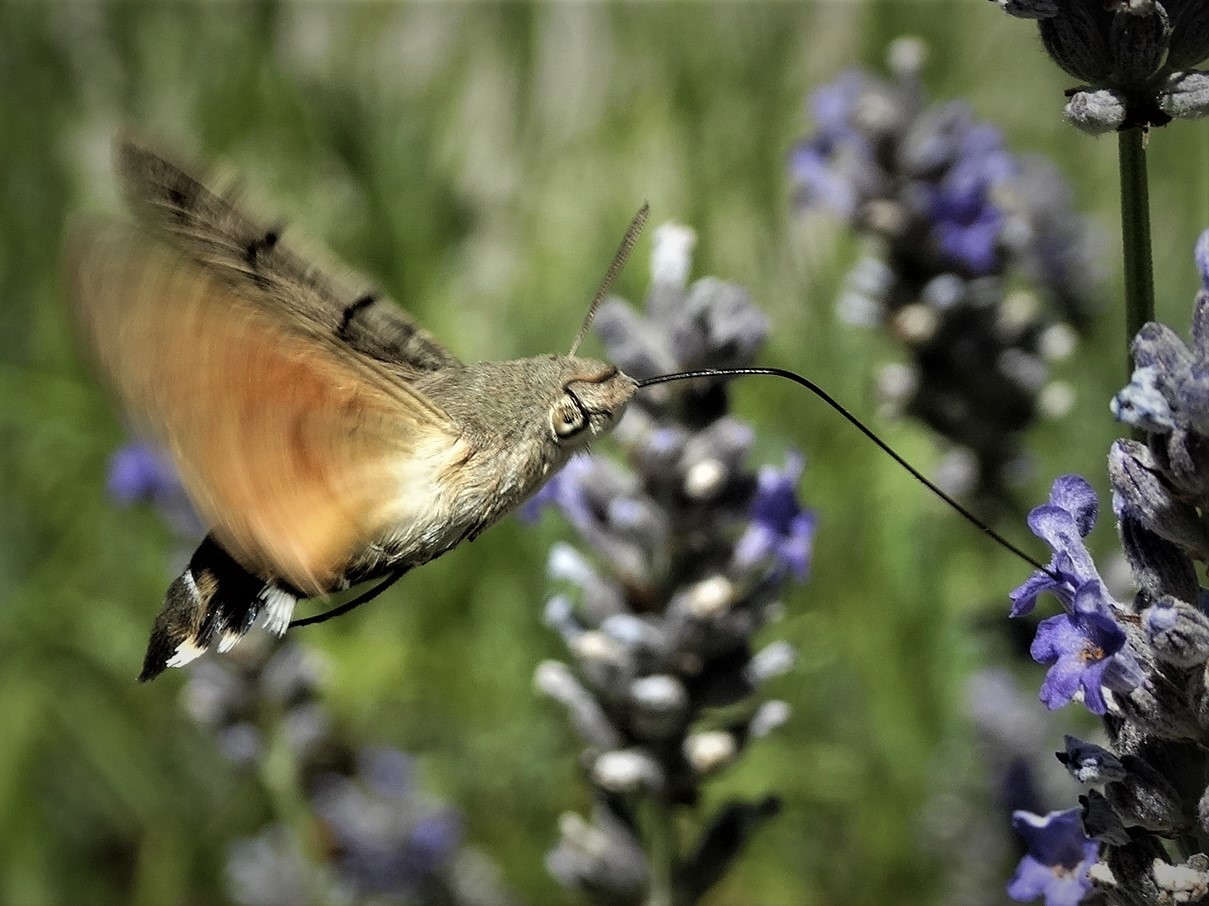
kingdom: Animalia
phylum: Arthropoda
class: Insecta
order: Lepidoptera
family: Sphingidae
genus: Macroglossum
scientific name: Macroglossum stellatarum
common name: Humming-bird hawk-moth
